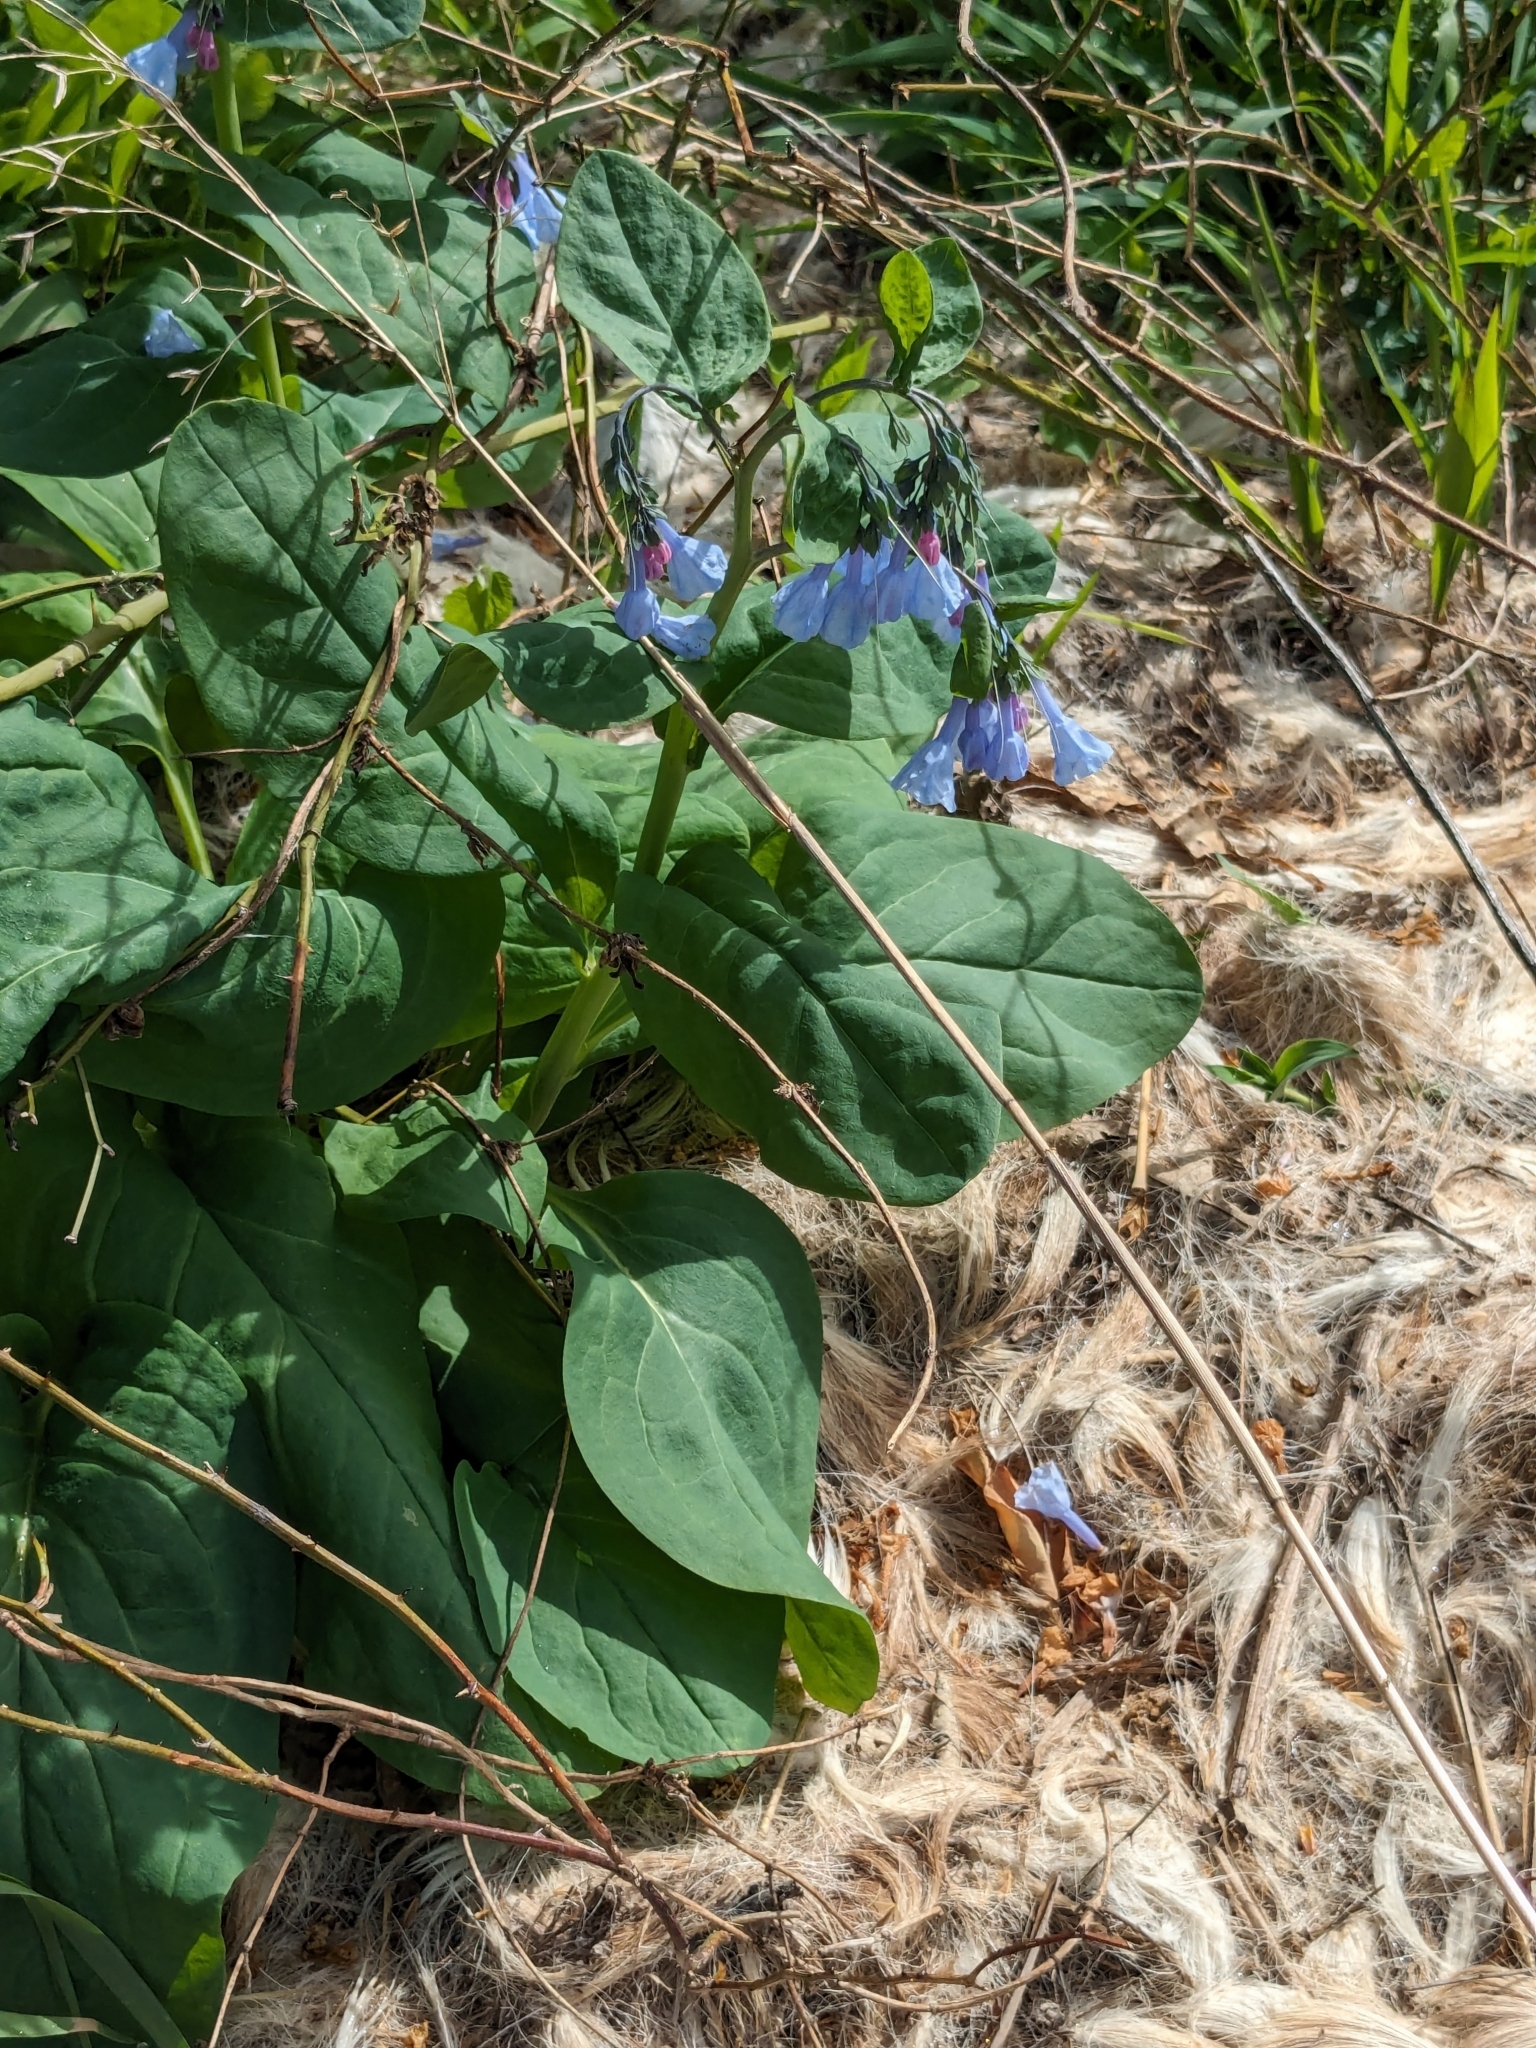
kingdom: Plantae
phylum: Tracheophyta
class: Magnoliopsida
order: Boraginales
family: Boraginaceae
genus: Mertensia
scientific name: Mertensia virginica
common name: Virginia bluebells
